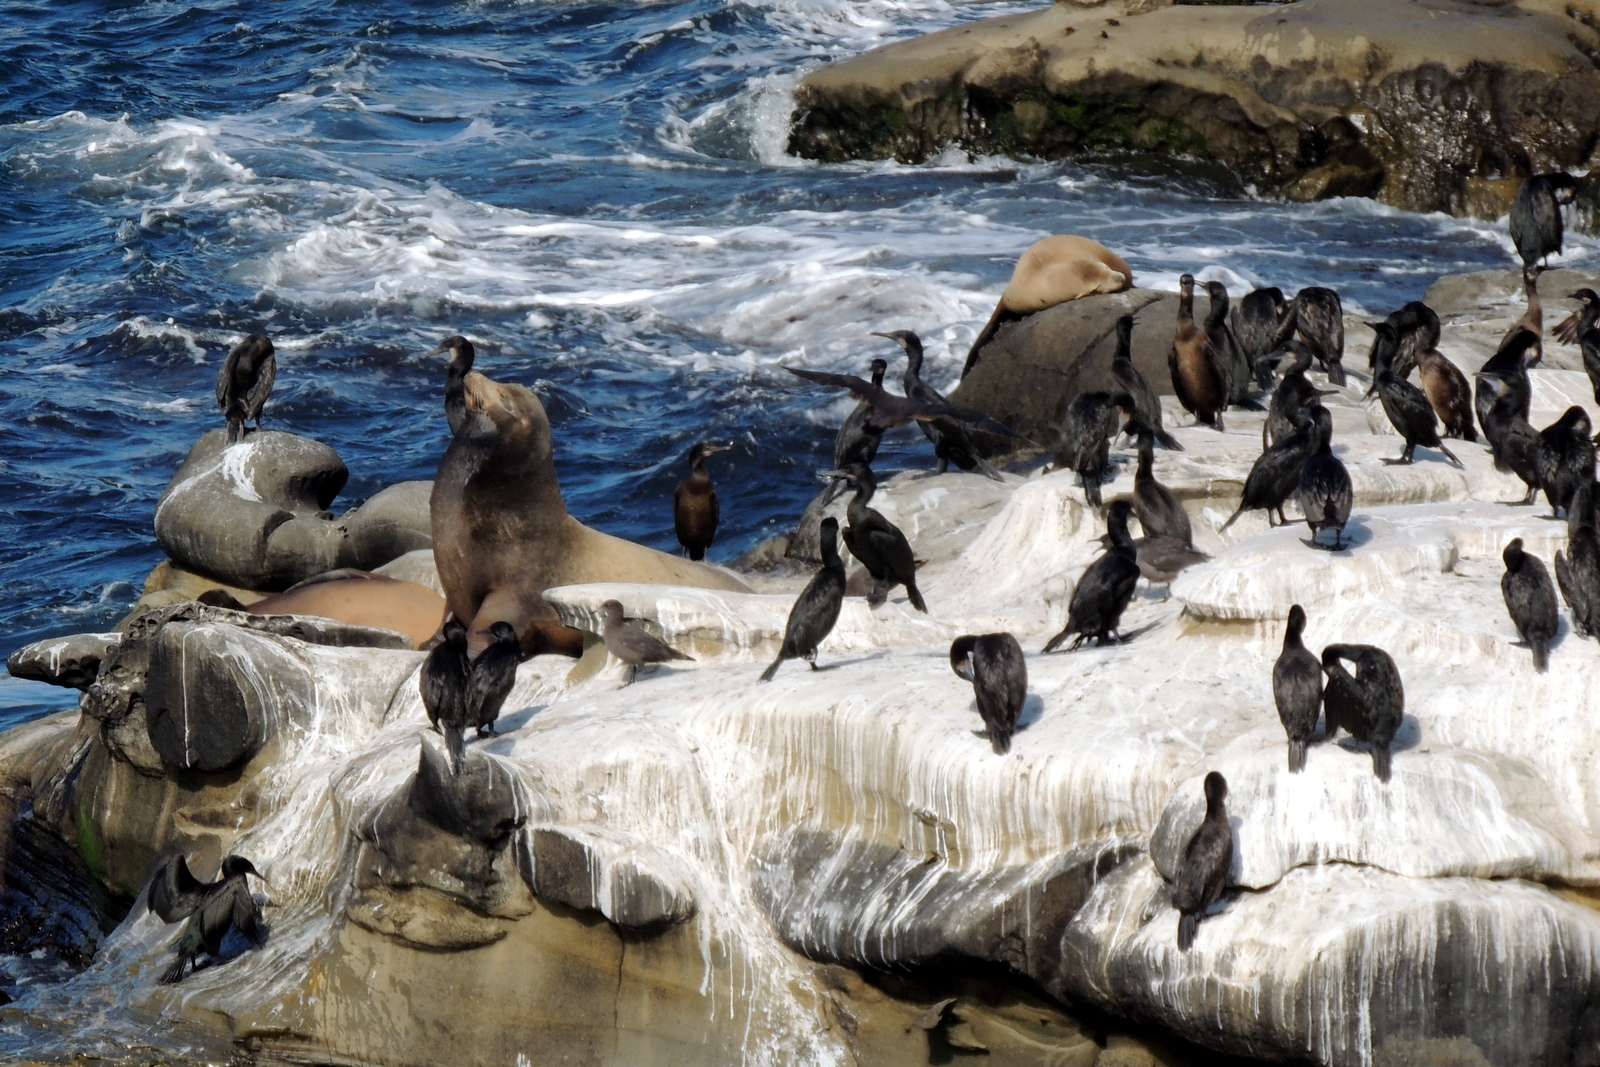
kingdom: Animalia
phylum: Chordata
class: Mammalia
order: Carnivora
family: Otariidae
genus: Zalophus
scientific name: Zalophus californianus
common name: California sea lion
